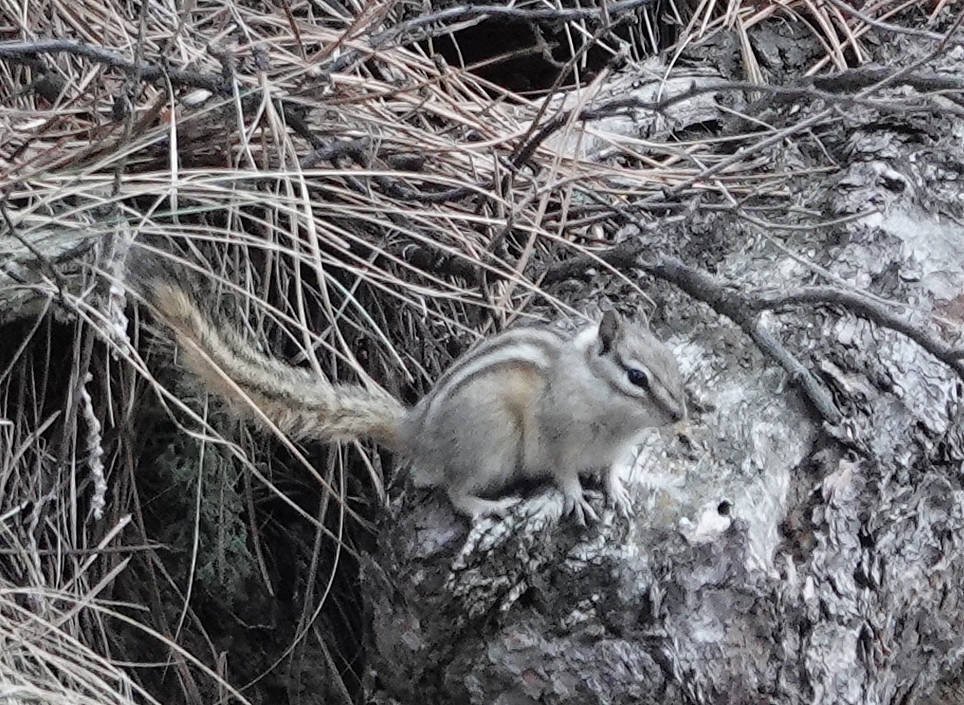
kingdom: Animalia
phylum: Chordata
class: Mammalia
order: Rodentia
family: Sciuridae
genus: Tamias
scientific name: Tamias minimus
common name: Least chipmunk
